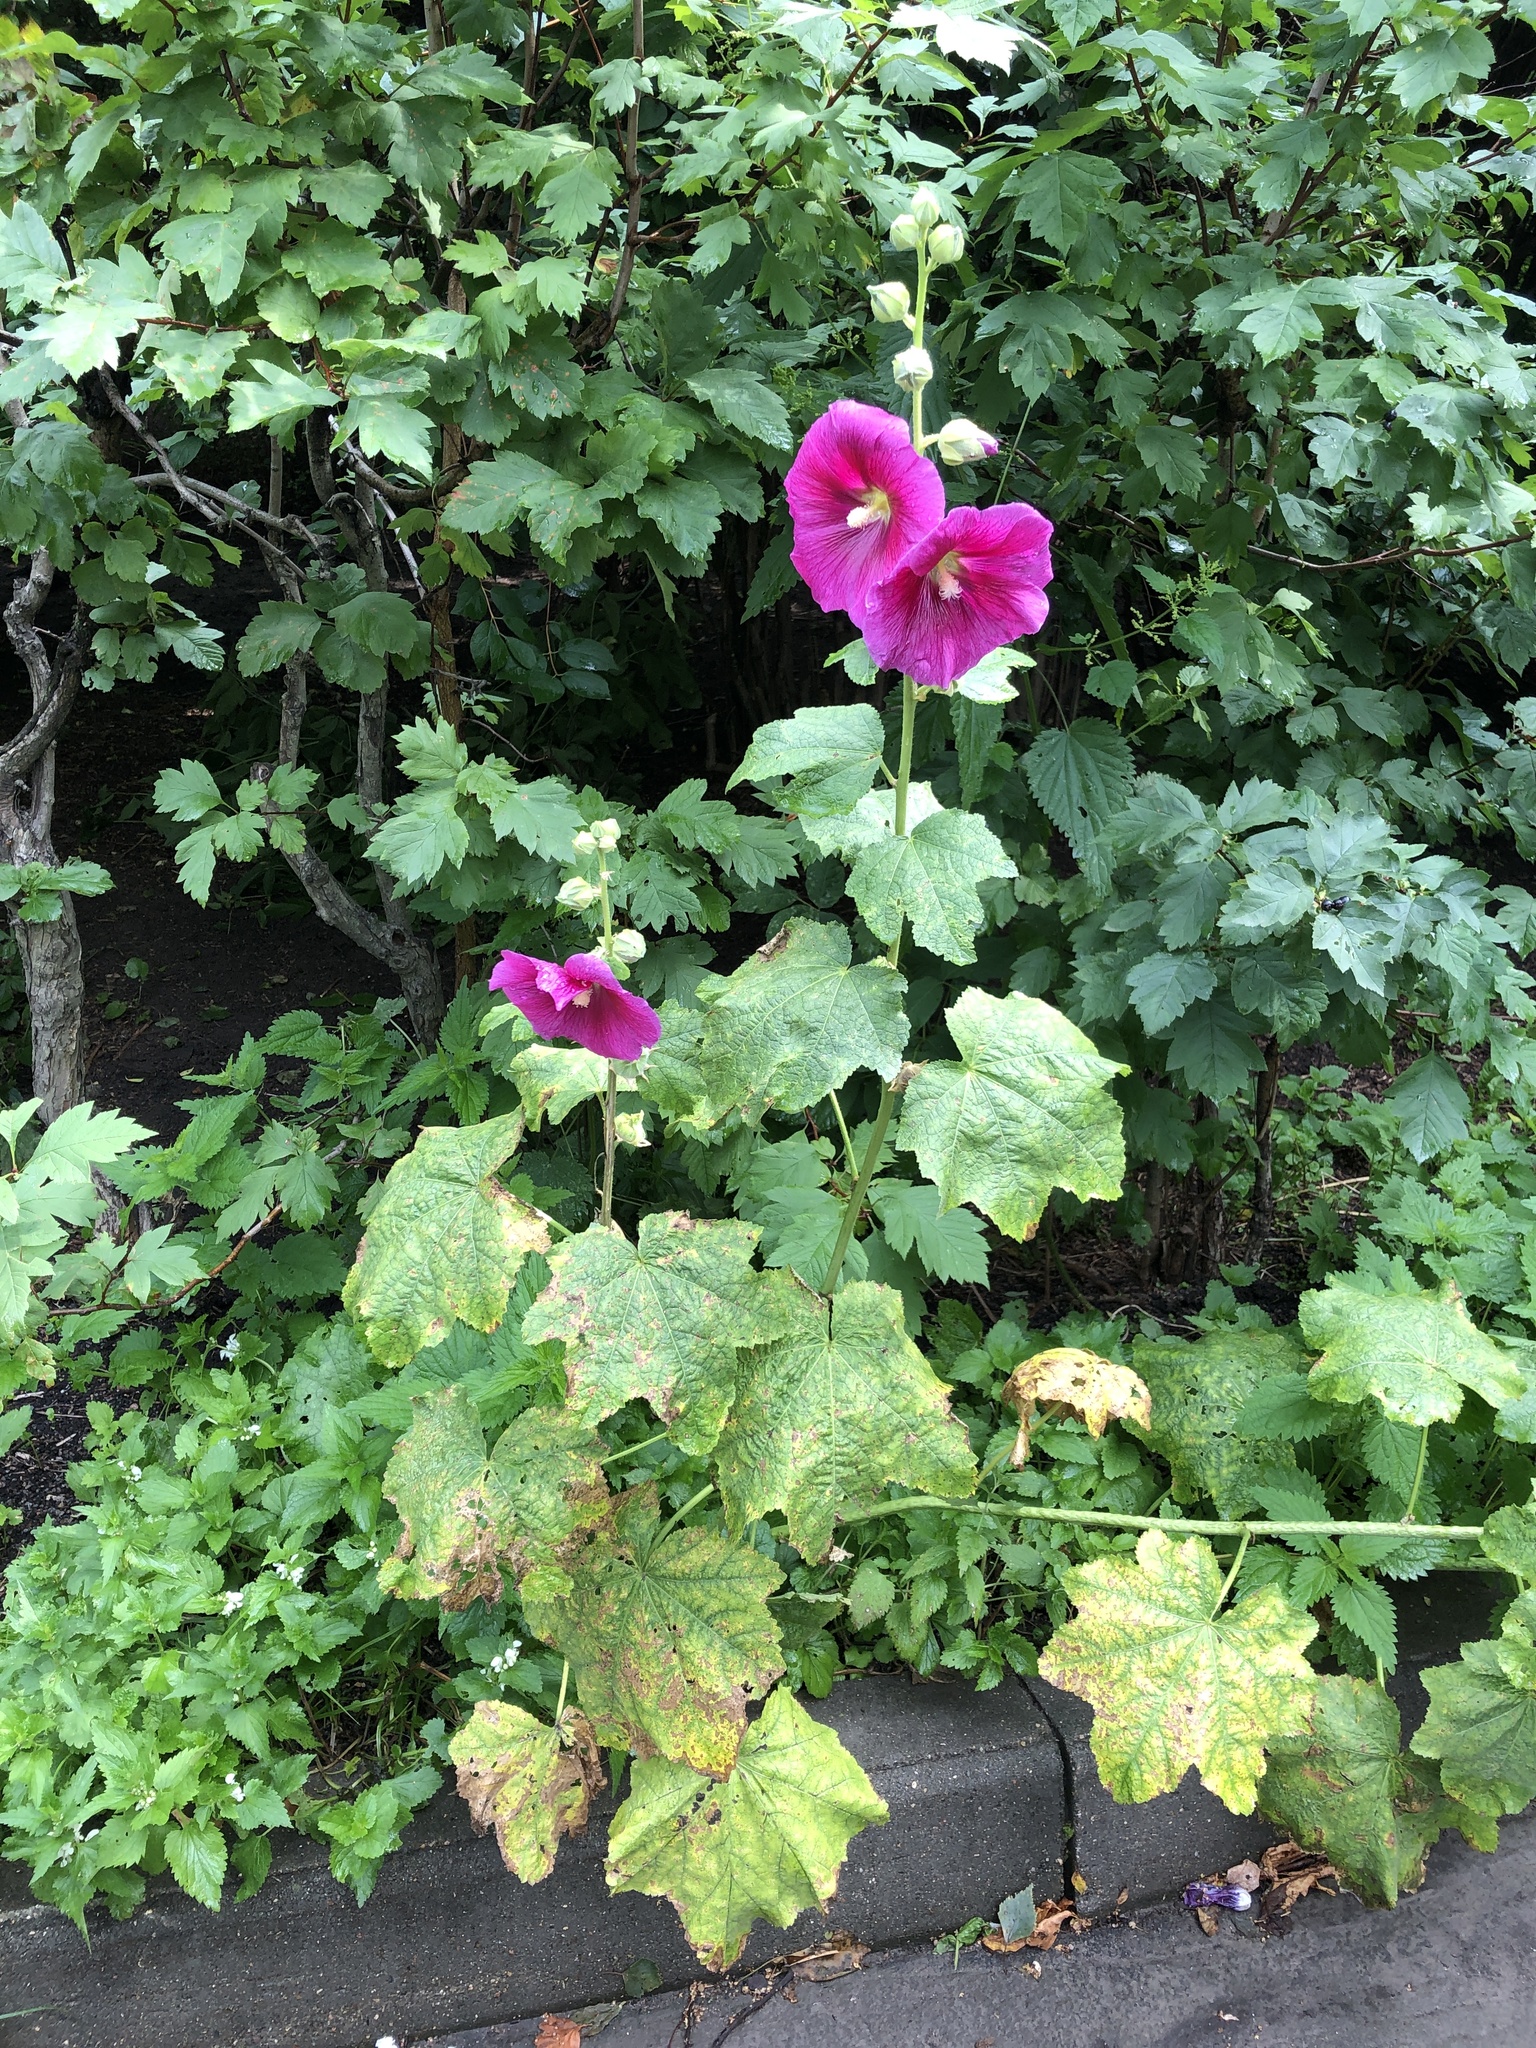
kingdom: Plantae
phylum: Tracheophyta
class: Magnoliopsida
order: Malvales
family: Malvaceae
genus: Alcea
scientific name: Alcea rosea
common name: Hollyhock
